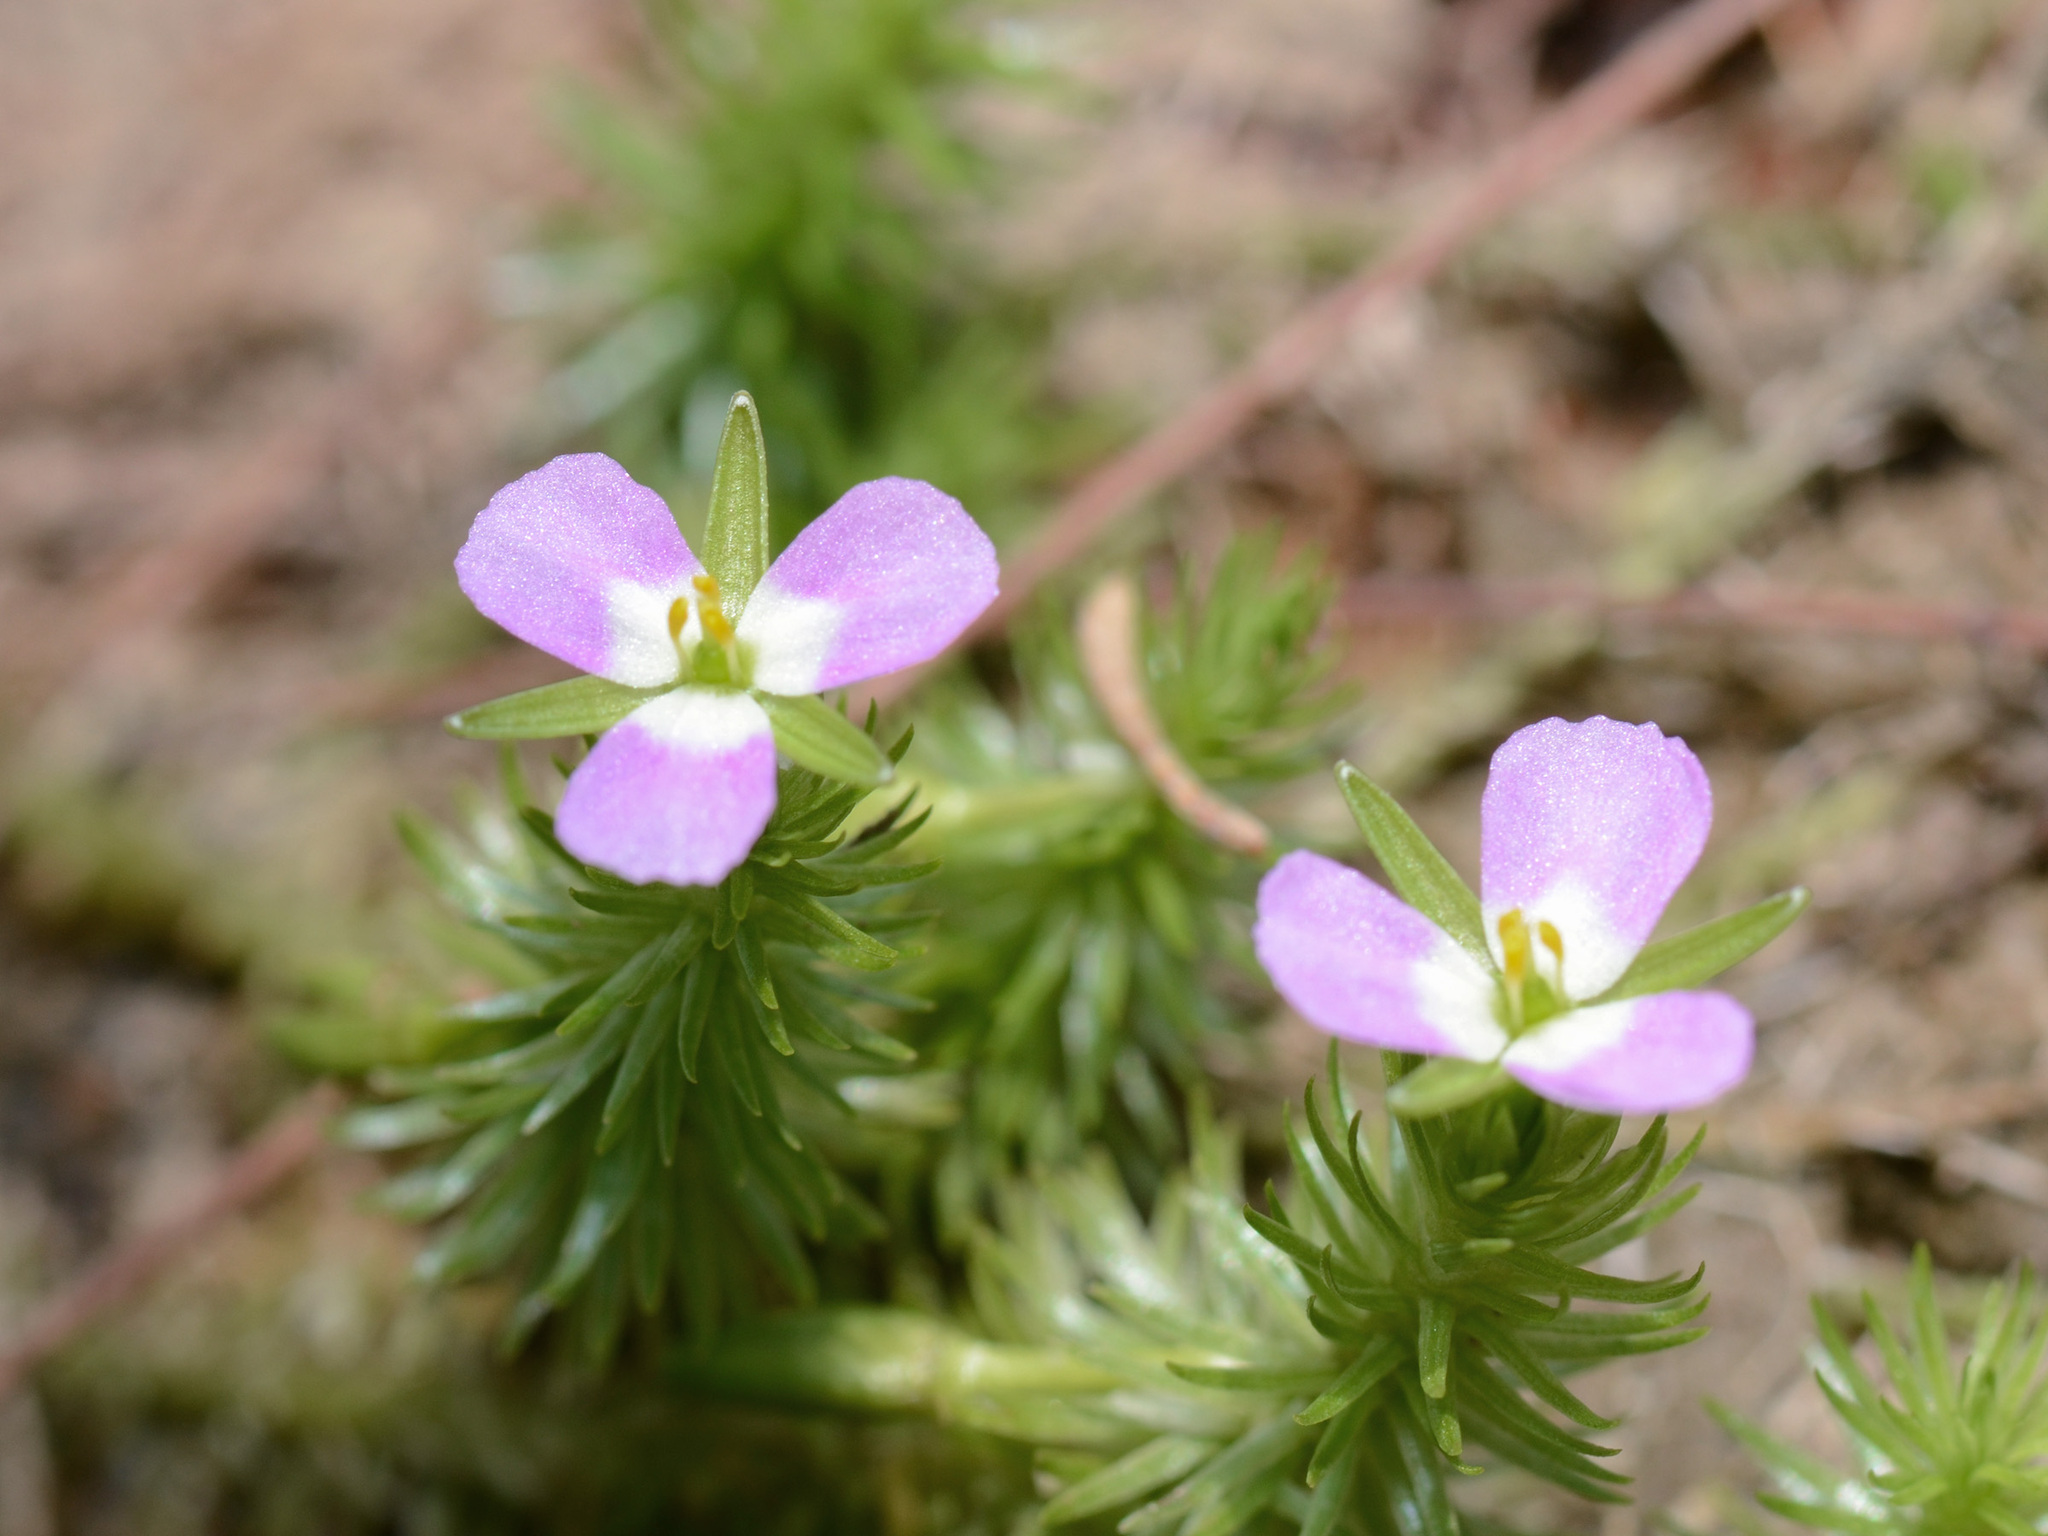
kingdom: Plantae
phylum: Tracheophyta
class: Liliopsida
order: Poales
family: Mayacaceae
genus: Mayaca
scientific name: Mayaca fluviatilis
